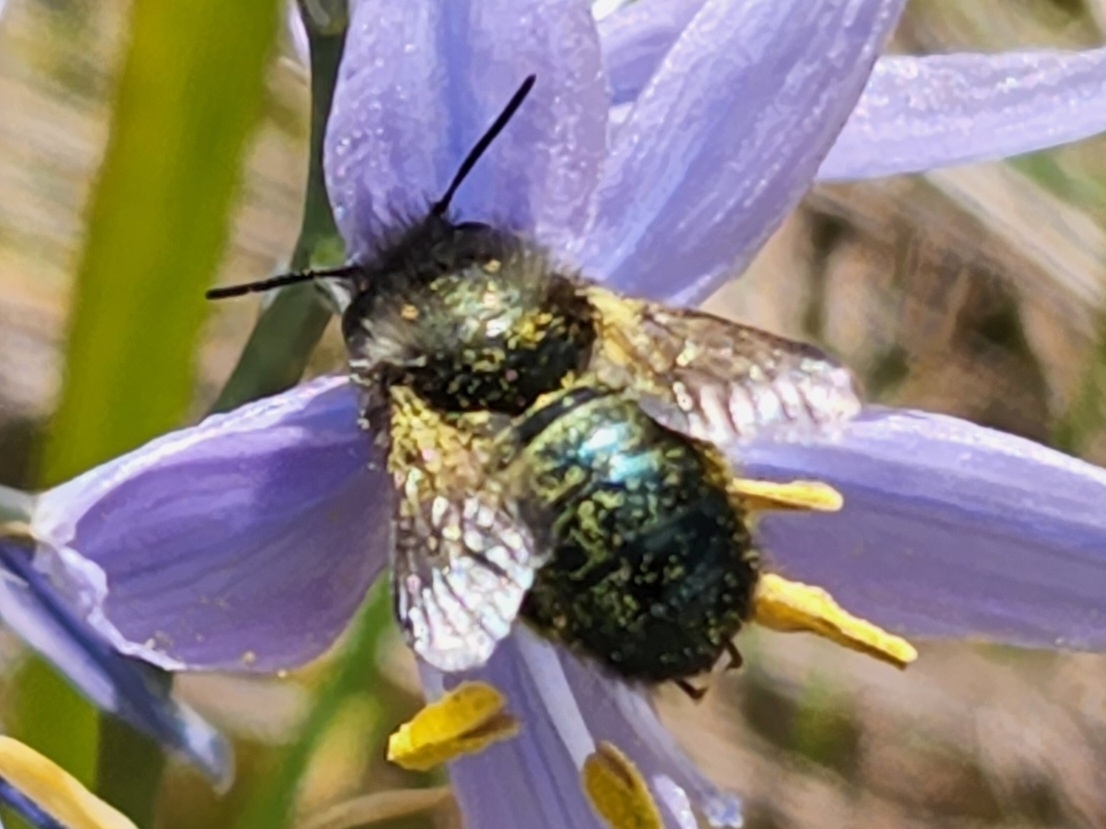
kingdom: Animalia
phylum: Arthropoda
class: Insecta
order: Hymenoptera
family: Megachilidae
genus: Osmia
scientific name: Osmia lignaria
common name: Blue orchard bee
